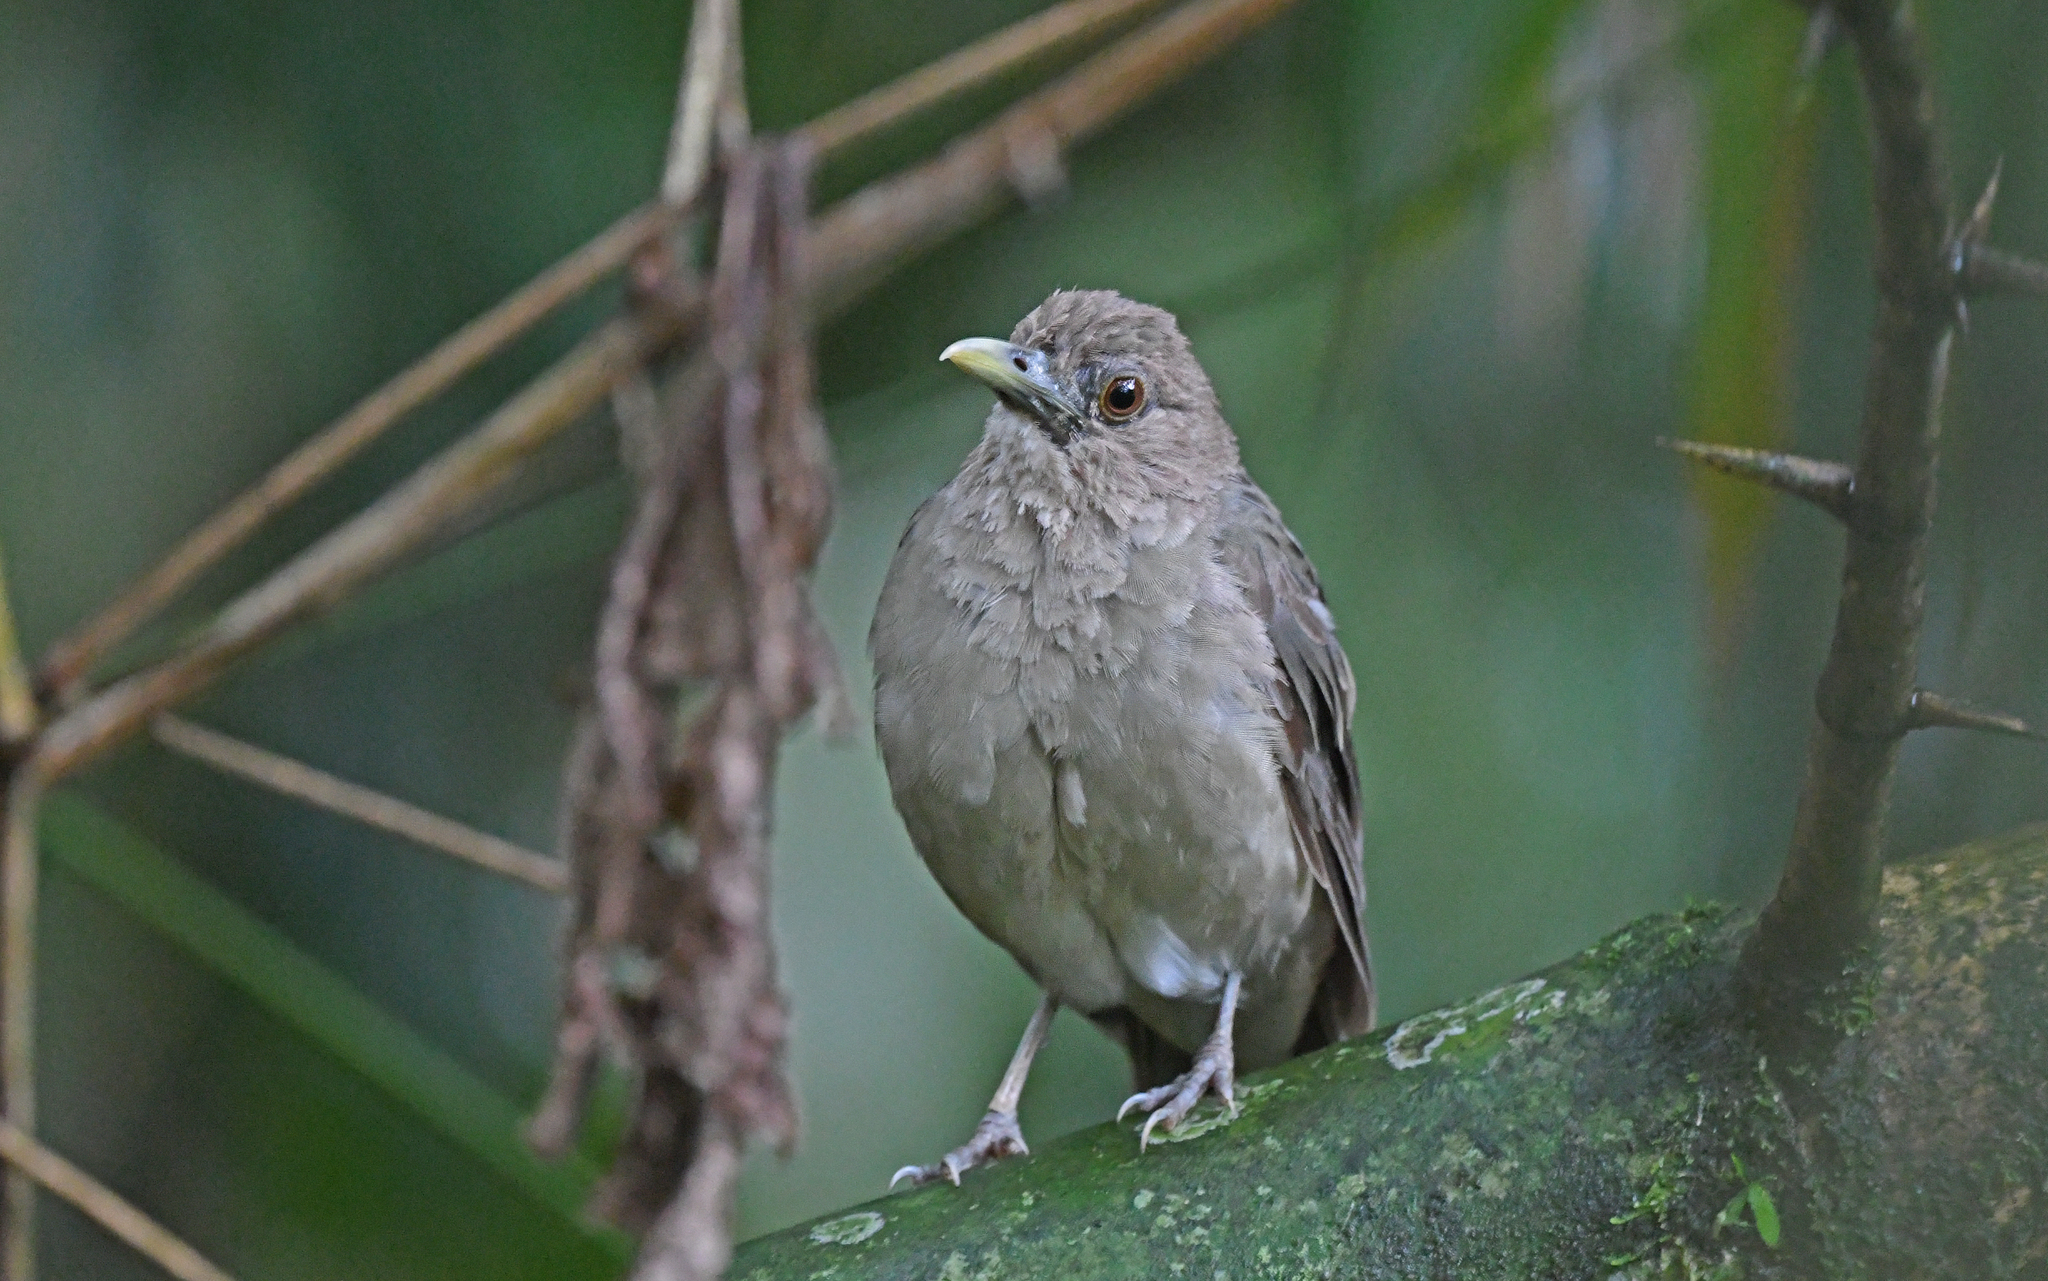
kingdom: Animalia
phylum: Chordata
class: Aves
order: Passeriformes
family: Turdidae
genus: Turdus
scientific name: Turdus grayi
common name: Clay-colored thrush
